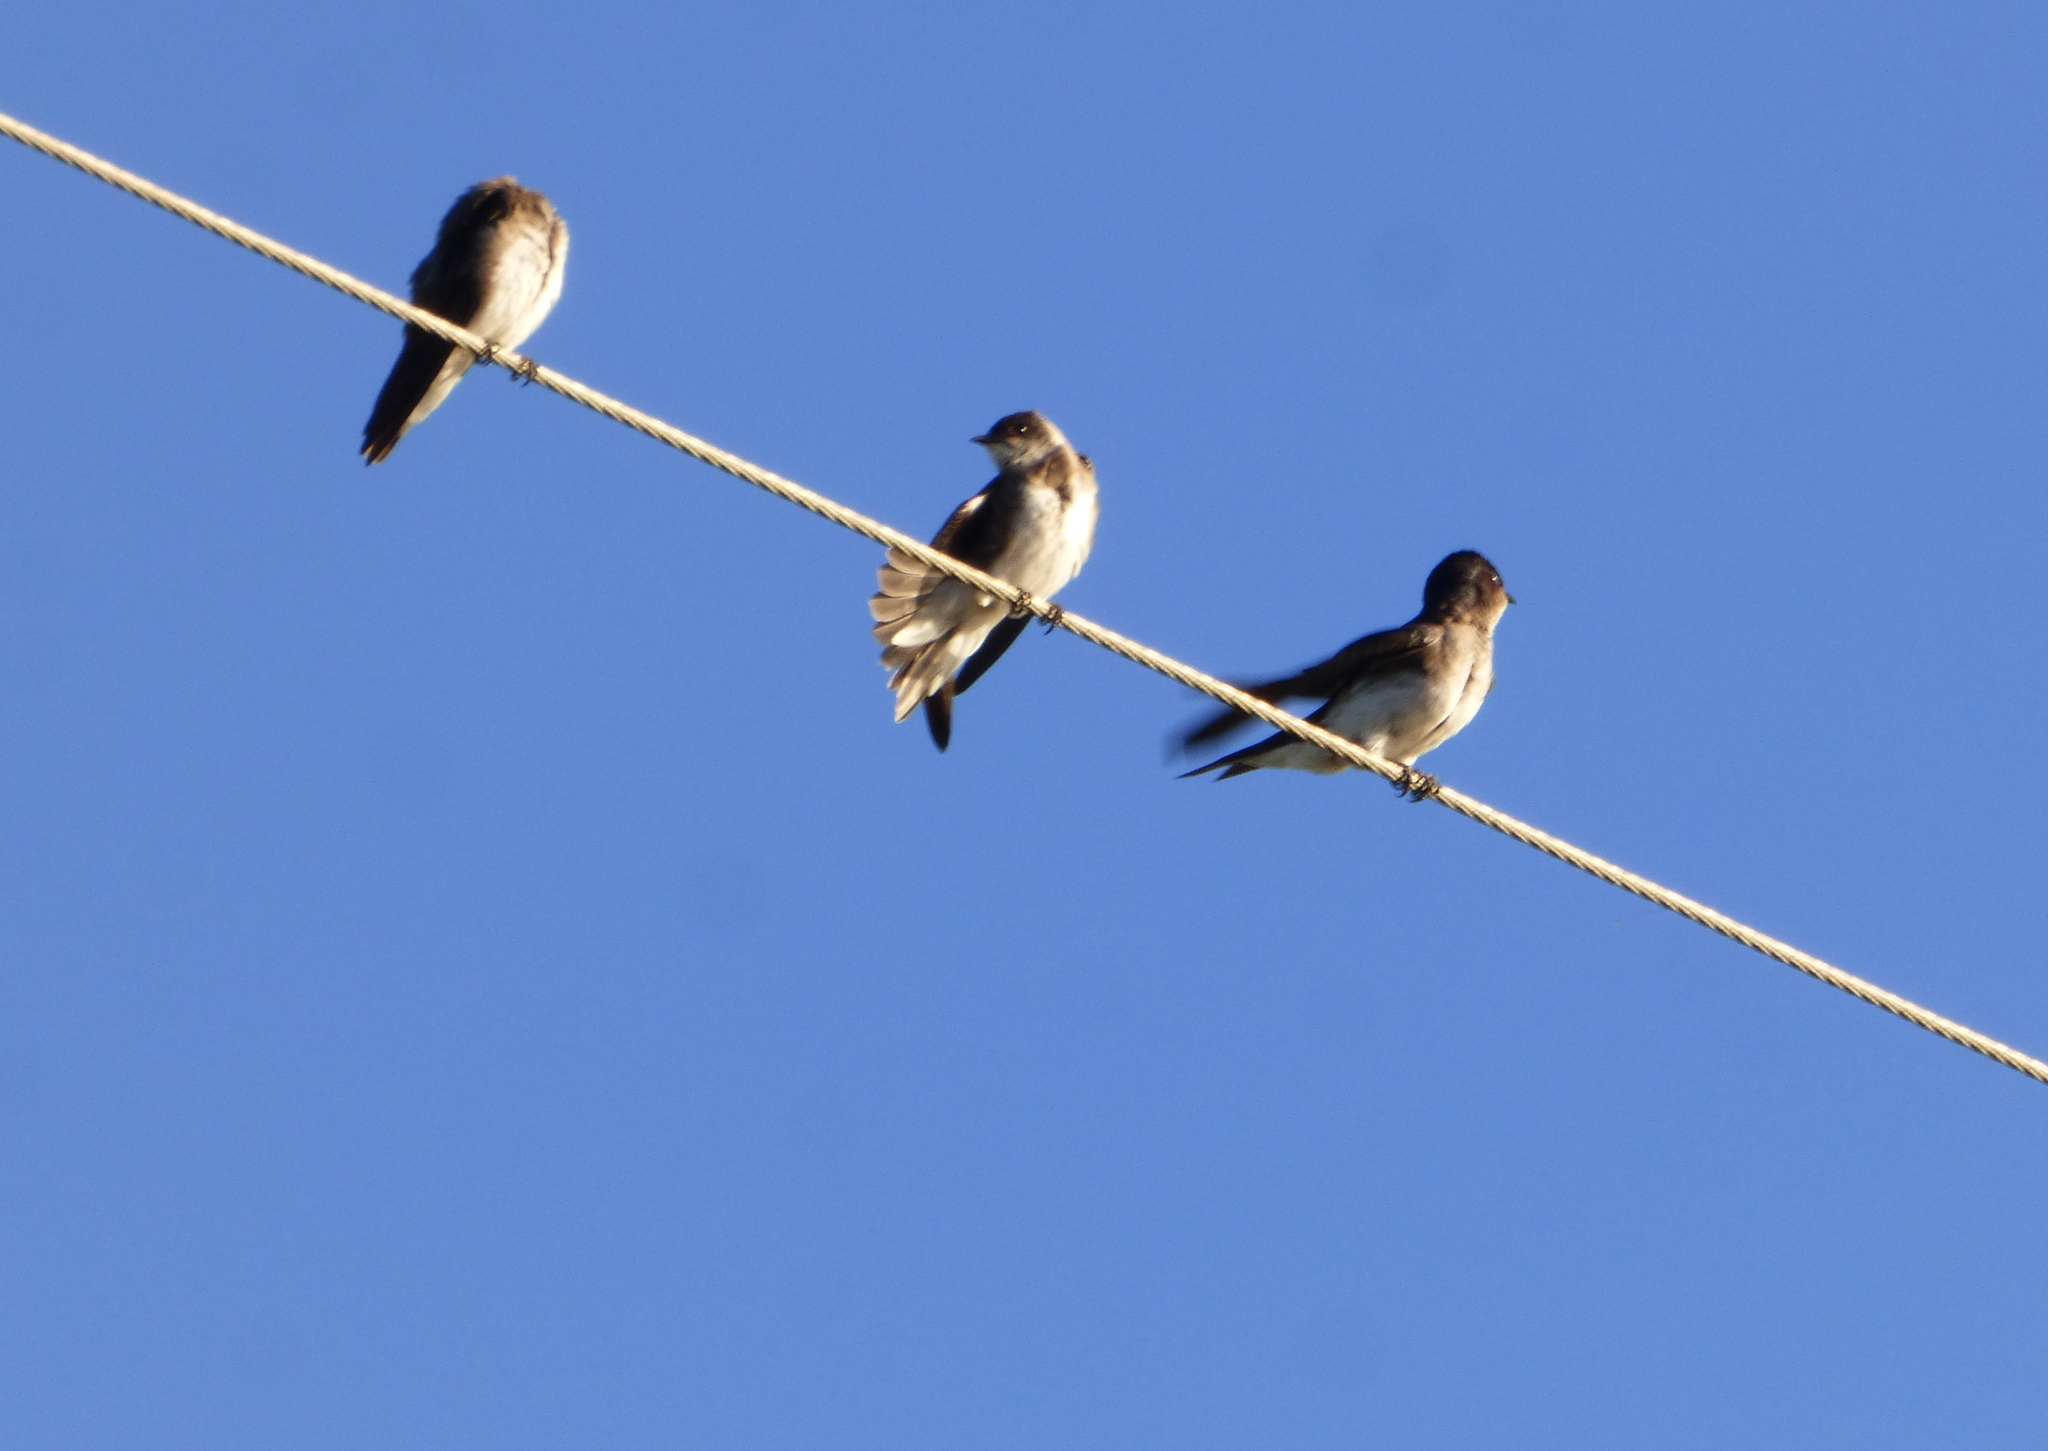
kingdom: Animalia
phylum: Chordata
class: Aves
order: Passeriformes
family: Hirundinidae
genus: Progne
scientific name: Progne chalybea
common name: Grey-breasted martin
